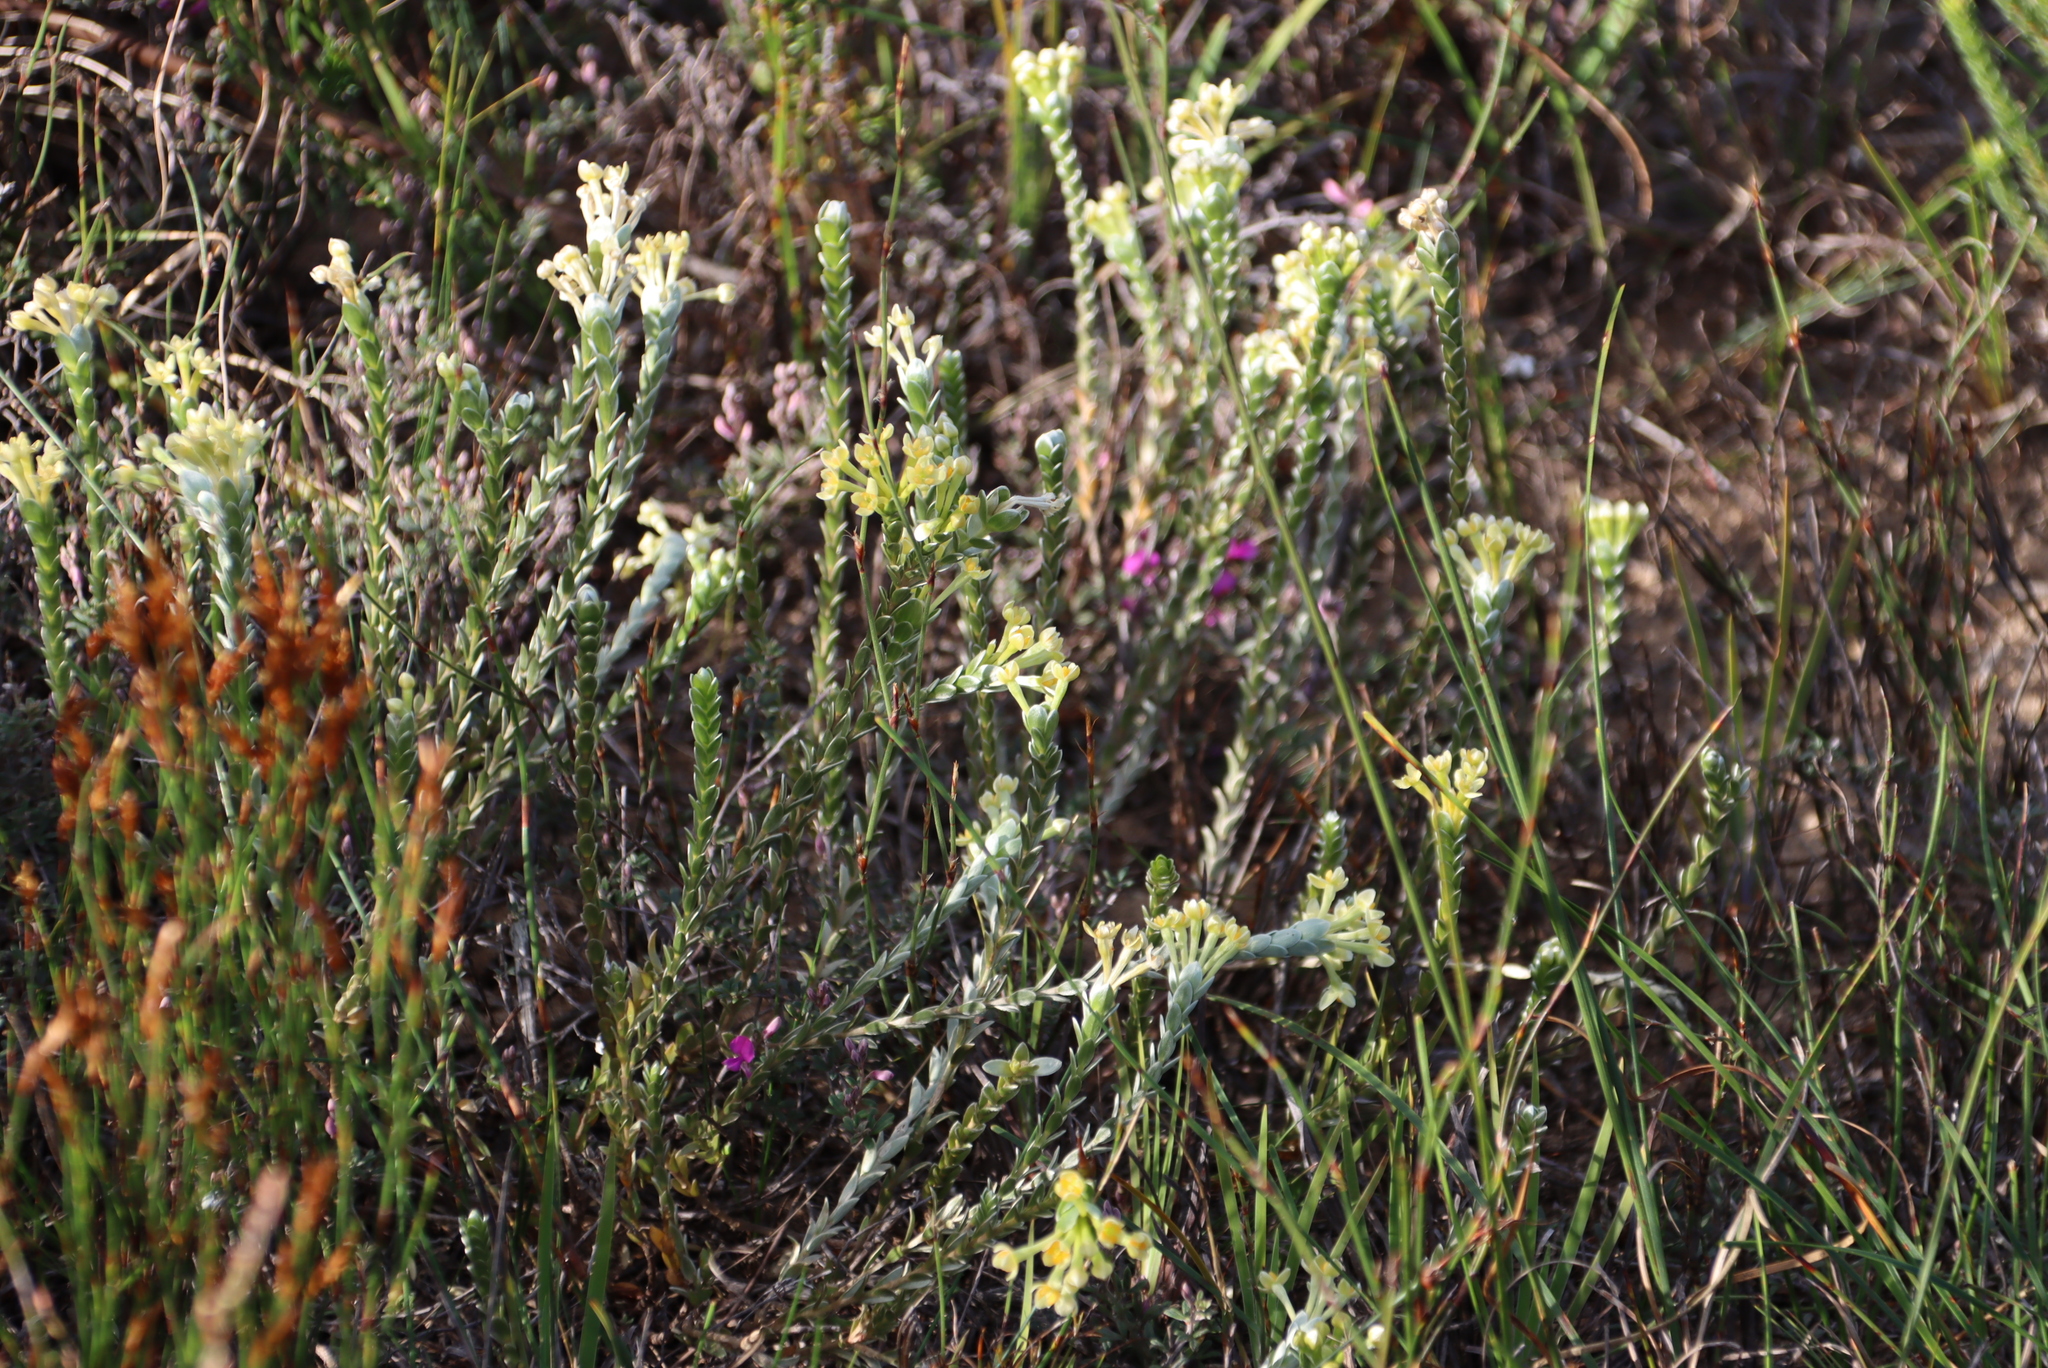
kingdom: Plantae
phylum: Tracheophyta
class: Magnoliopsida
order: Malvales
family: Thymelaeaceae
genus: Gnidia
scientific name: Gnidia chrysophylla
